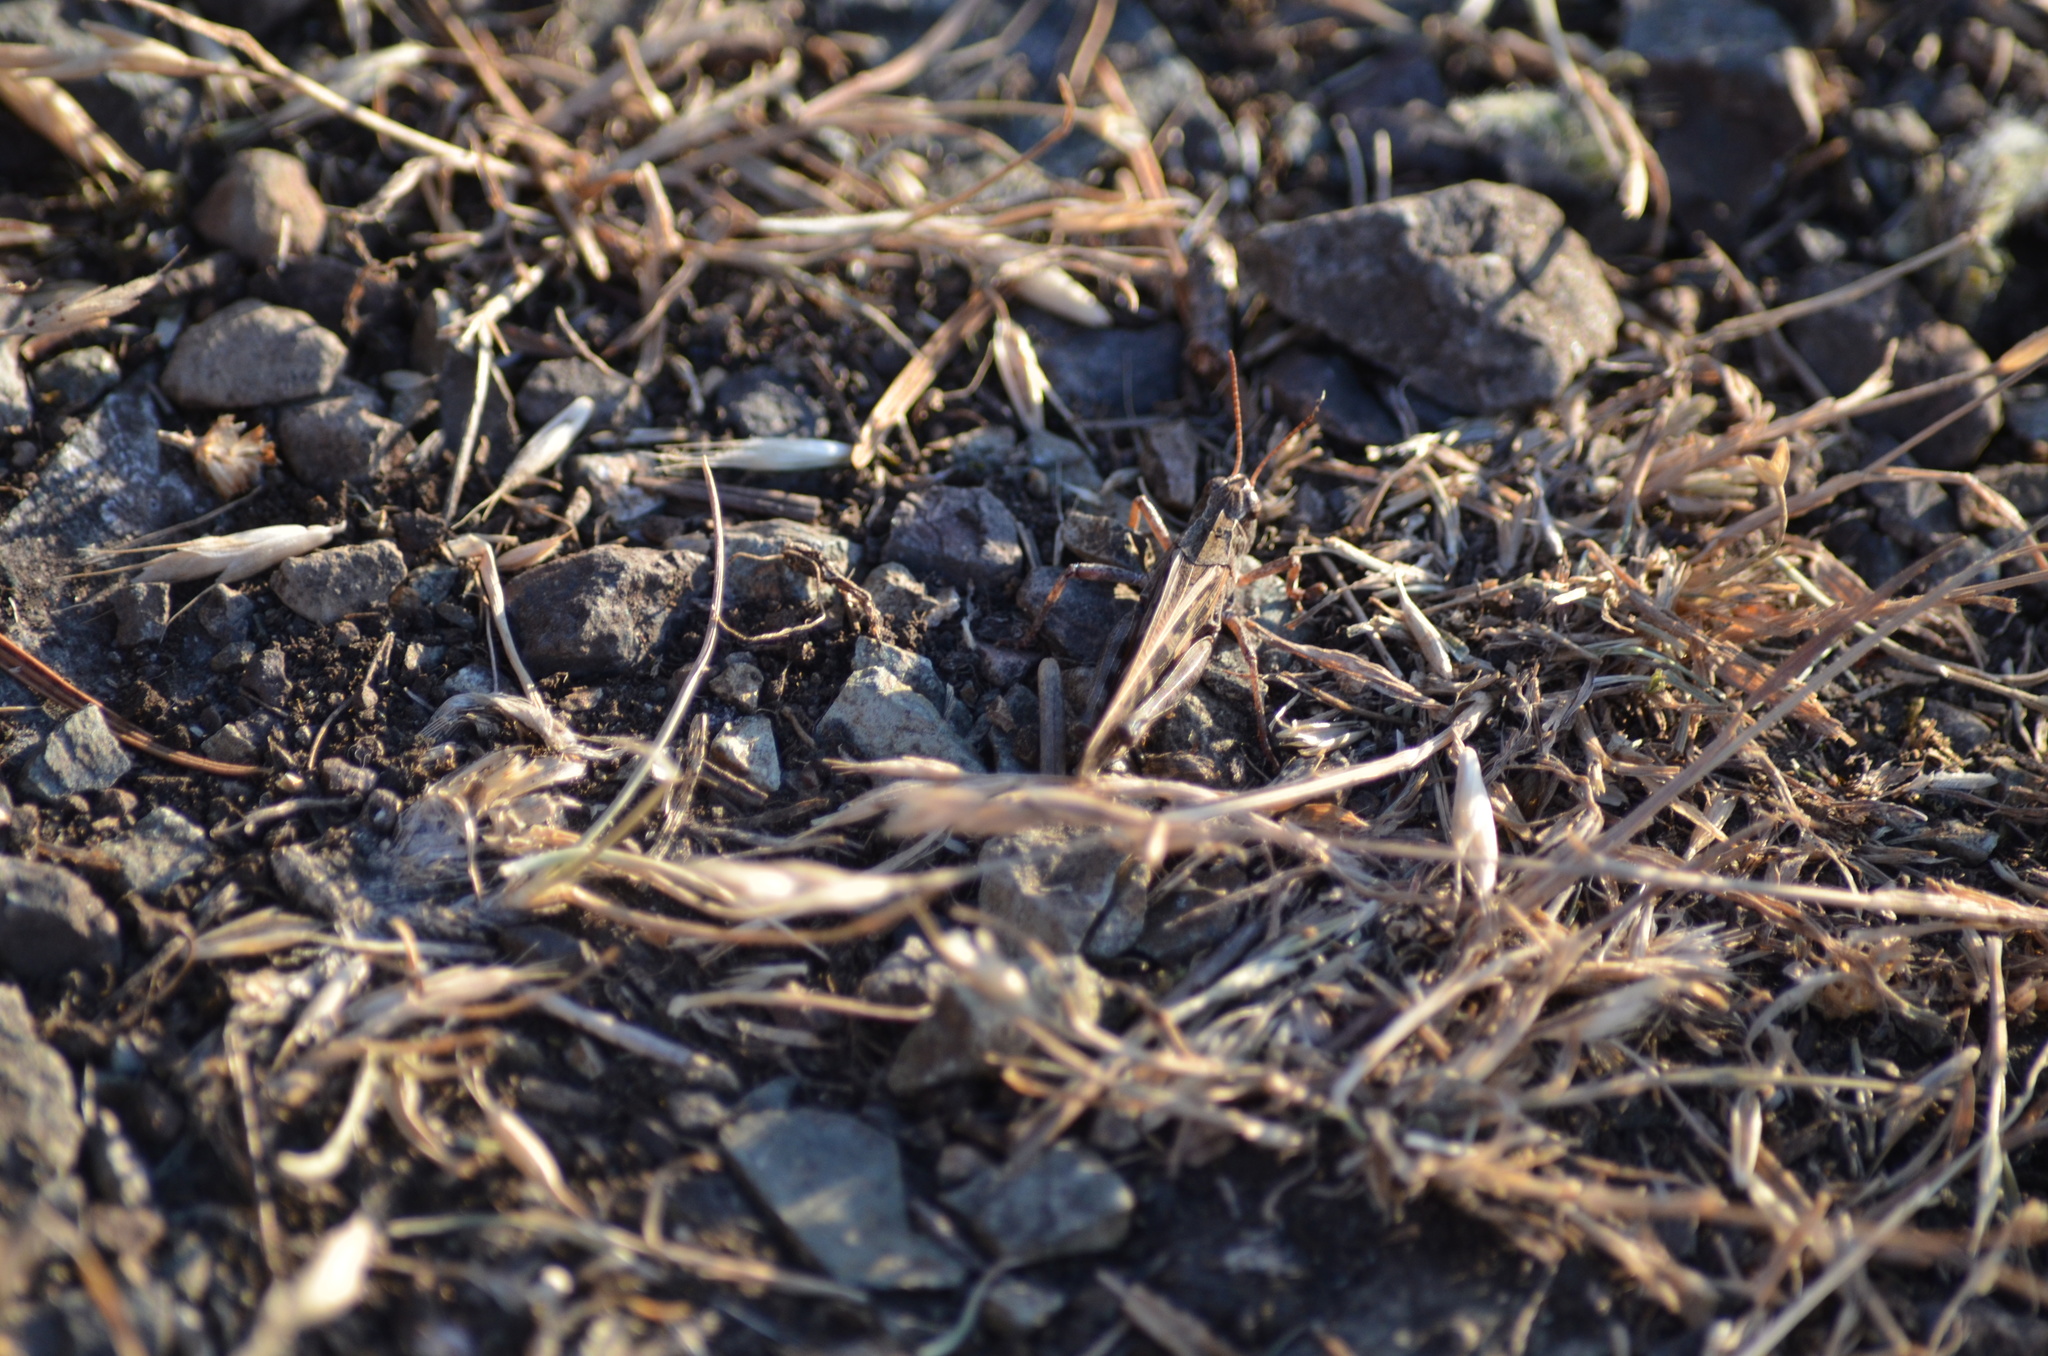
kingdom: Animalia
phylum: Arthropoda
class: Insecta
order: Orthoptera
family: Acrididae
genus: Camnula
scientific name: Camnula pellucida
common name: Clear-winged grasshopper
